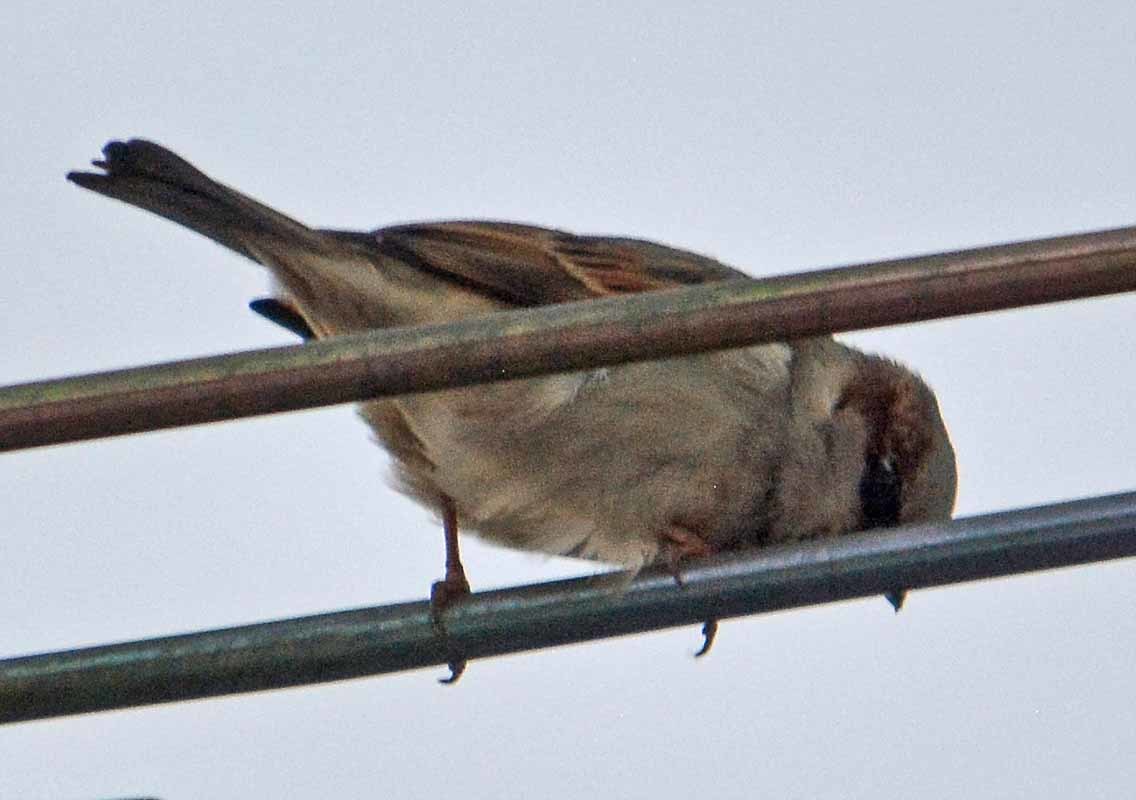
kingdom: Animalia
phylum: Chordata
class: Aves
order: Passeriformes
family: Passeridae
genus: Passer
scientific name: Passer domesticus
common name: House sparrow
